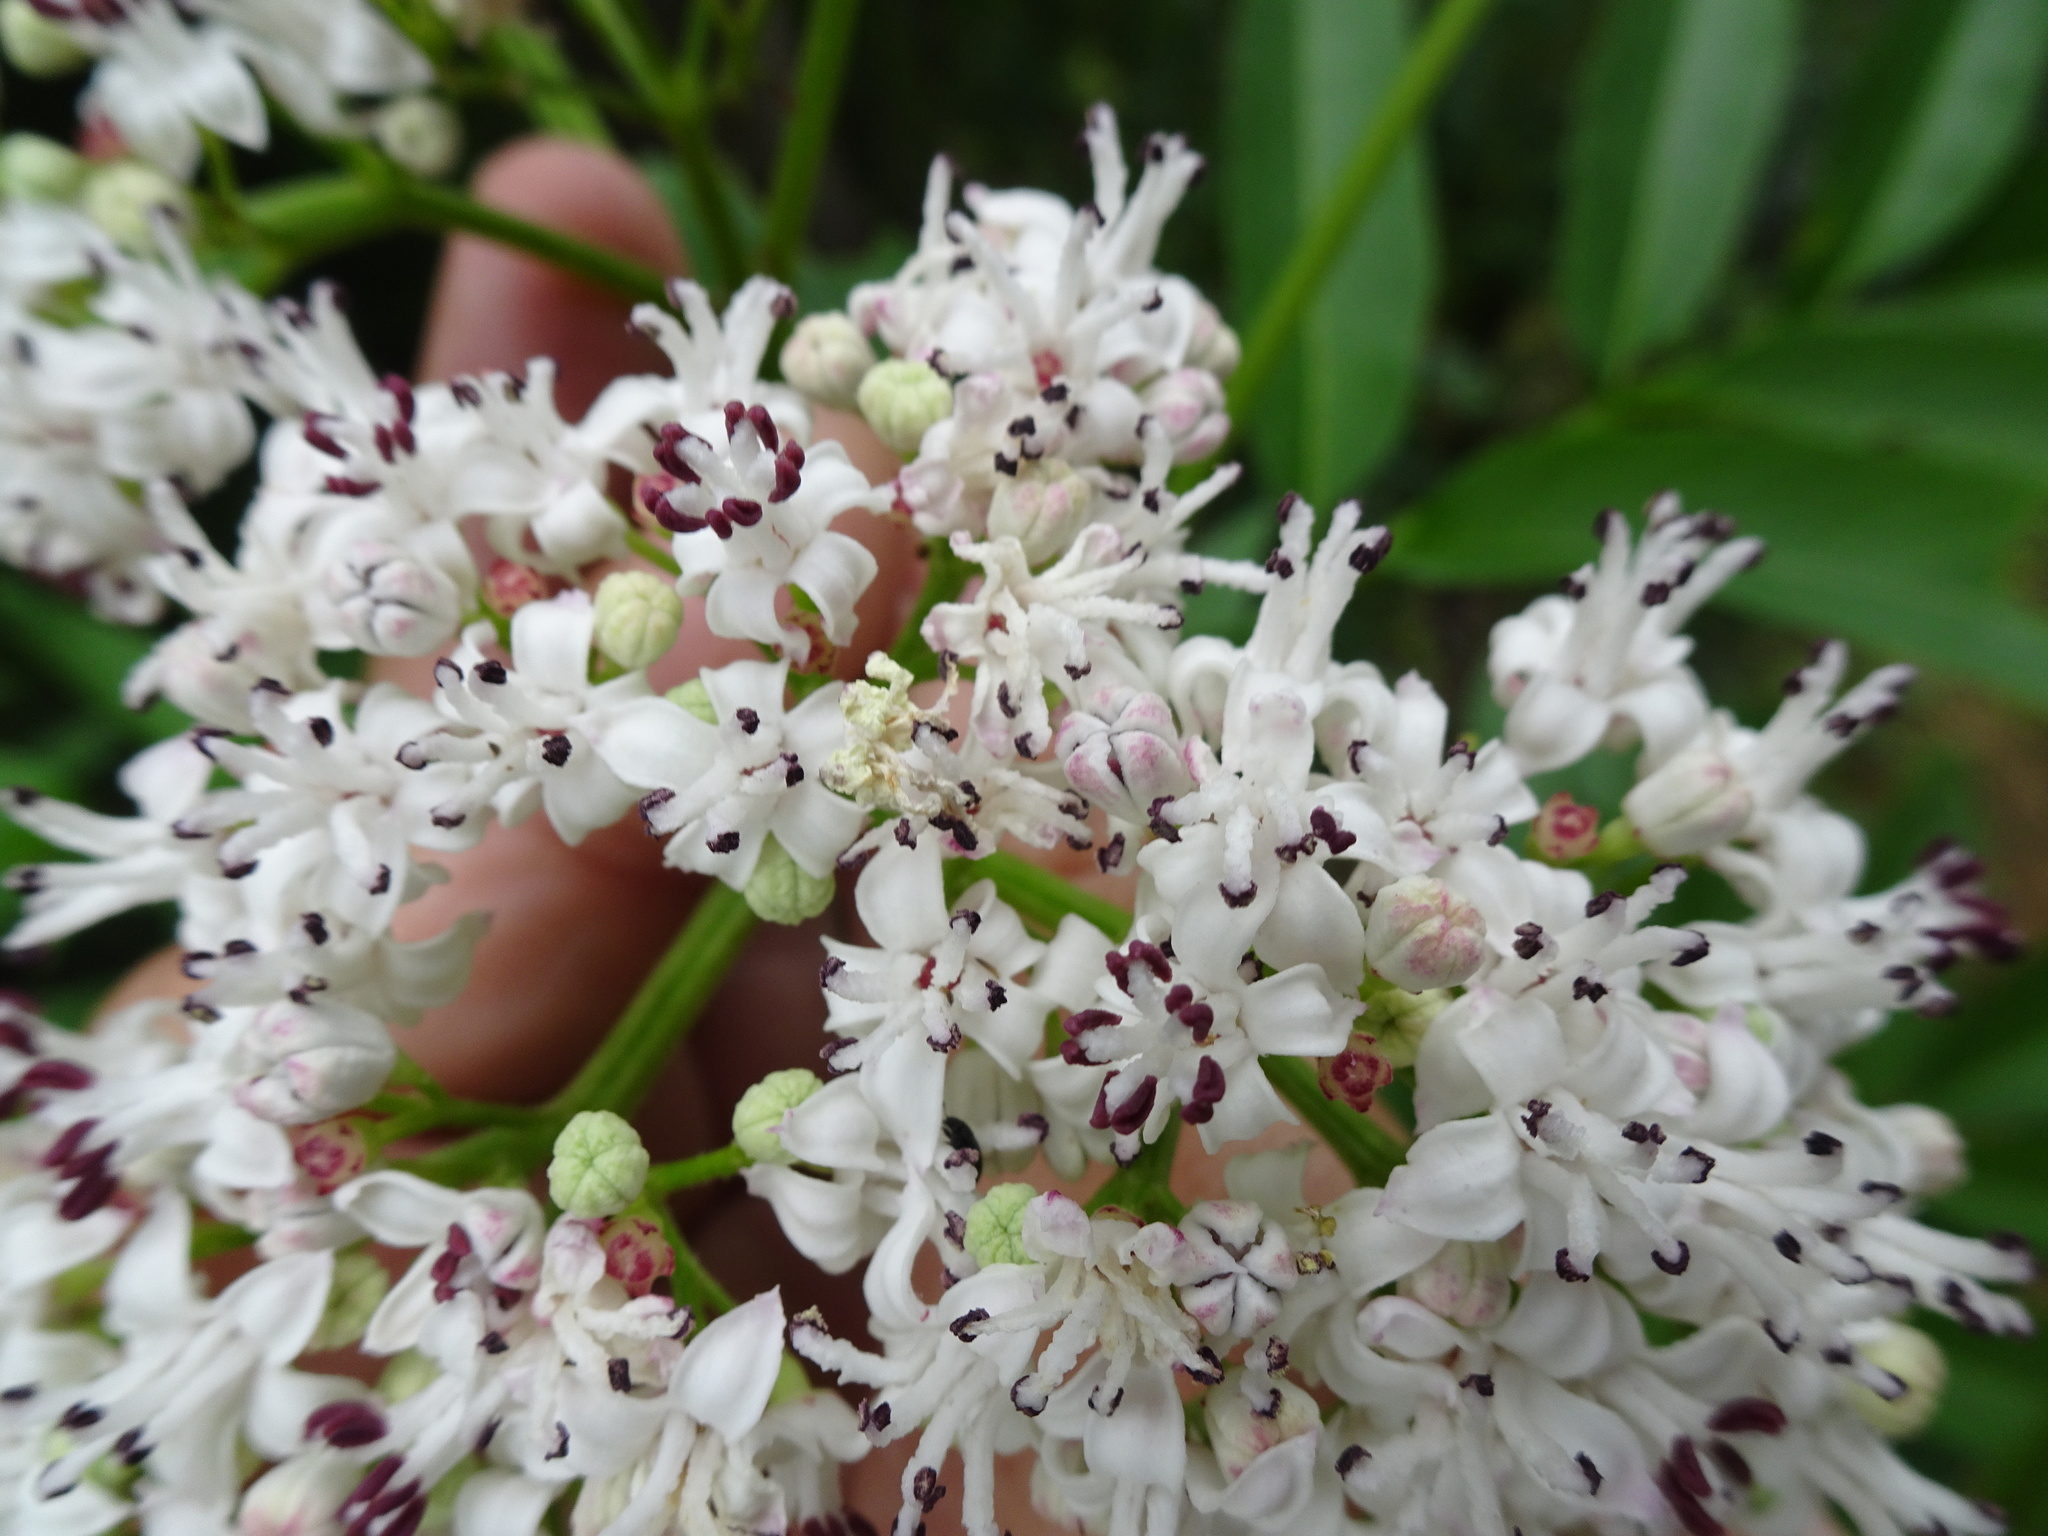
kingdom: Plantae
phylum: Tracheophyta
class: Magnoliopsida
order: Dipsacales
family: Viburnaceae
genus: Sambucus
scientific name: Sambucus ebulus
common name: Dwarf elder
